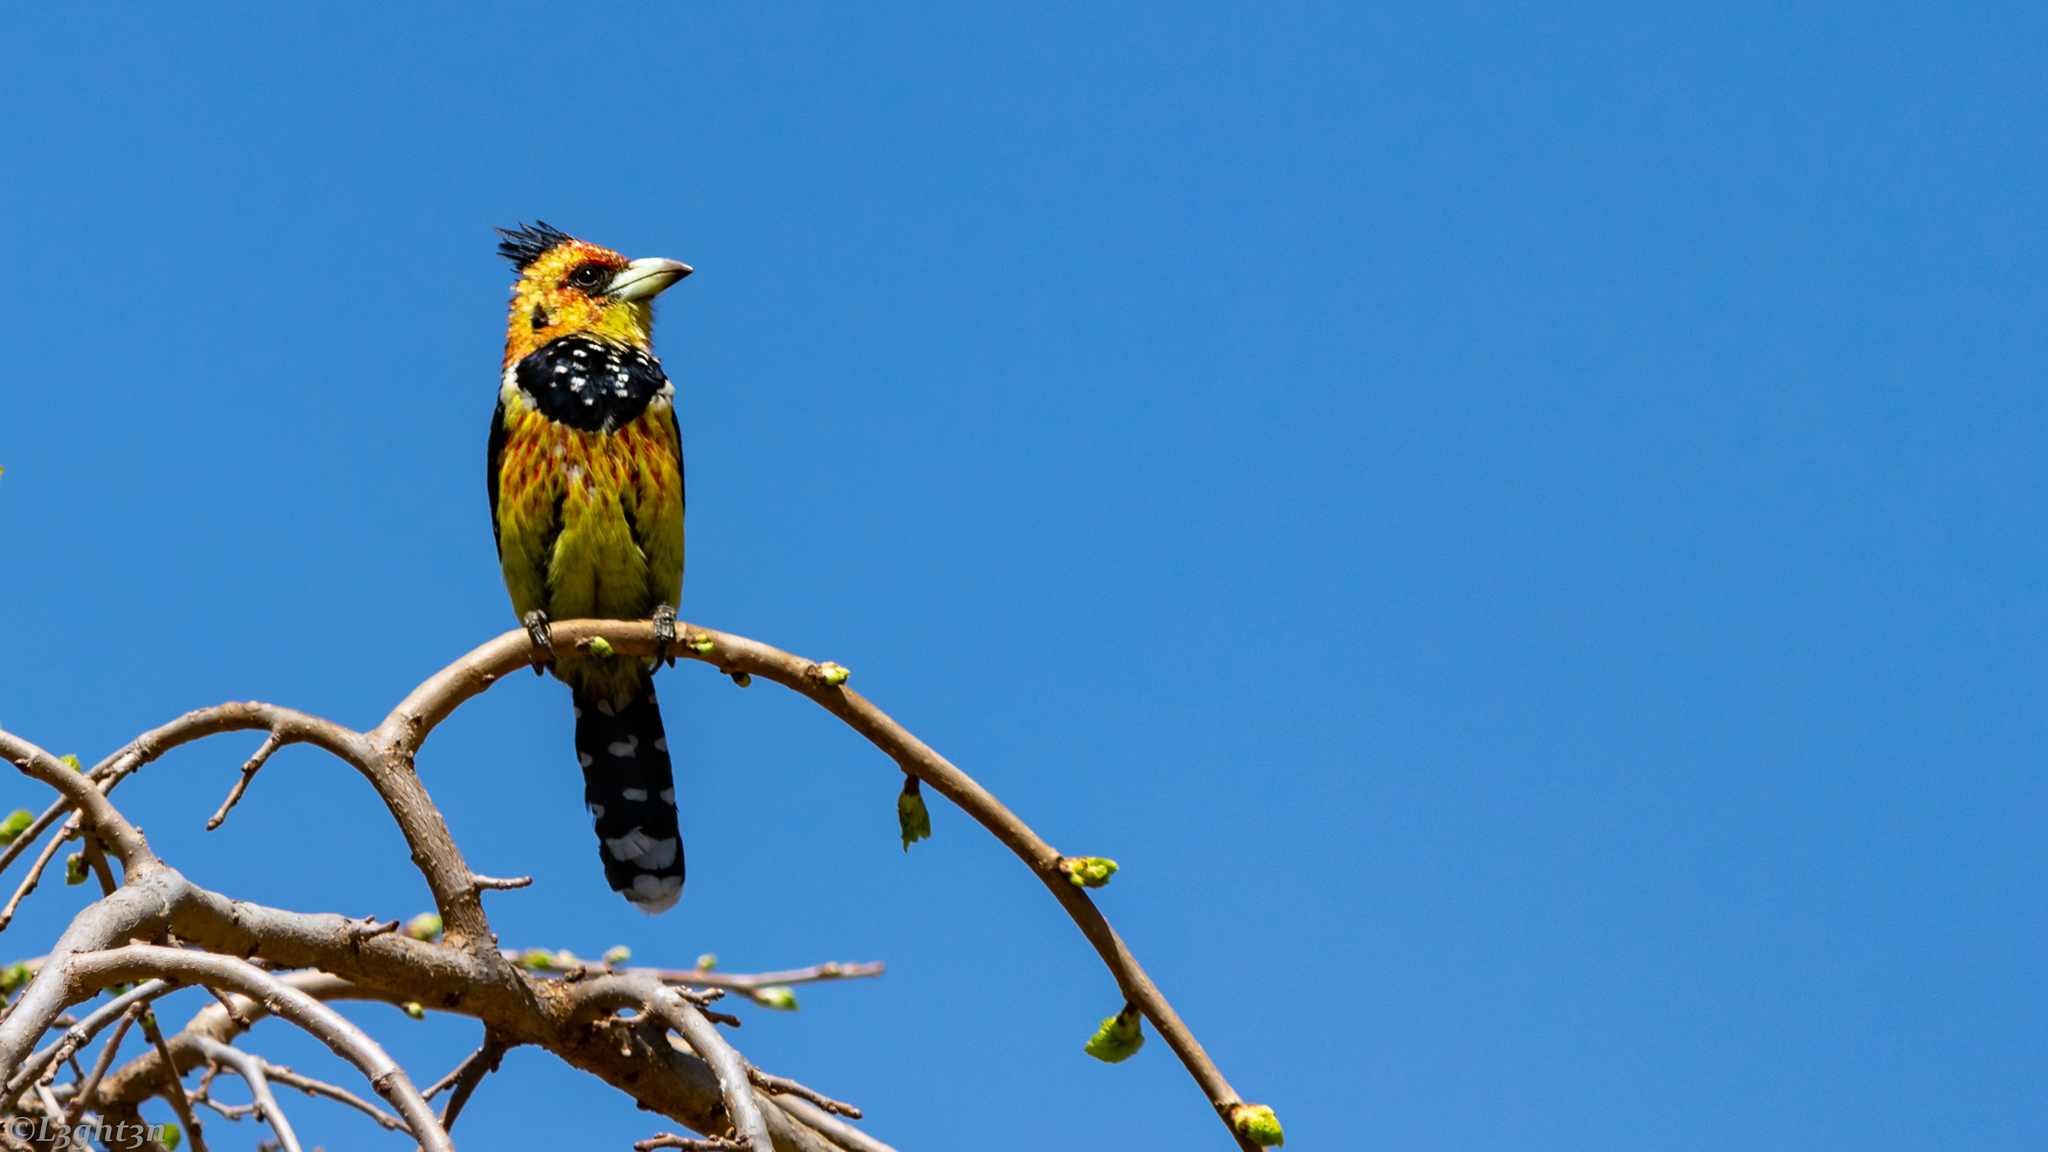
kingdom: Animalia
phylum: Chordata
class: Aves
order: Piciformes
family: Lybiidae
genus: Trachyphonus
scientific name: Trachyphonus vaillantii
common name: Crested barbet
